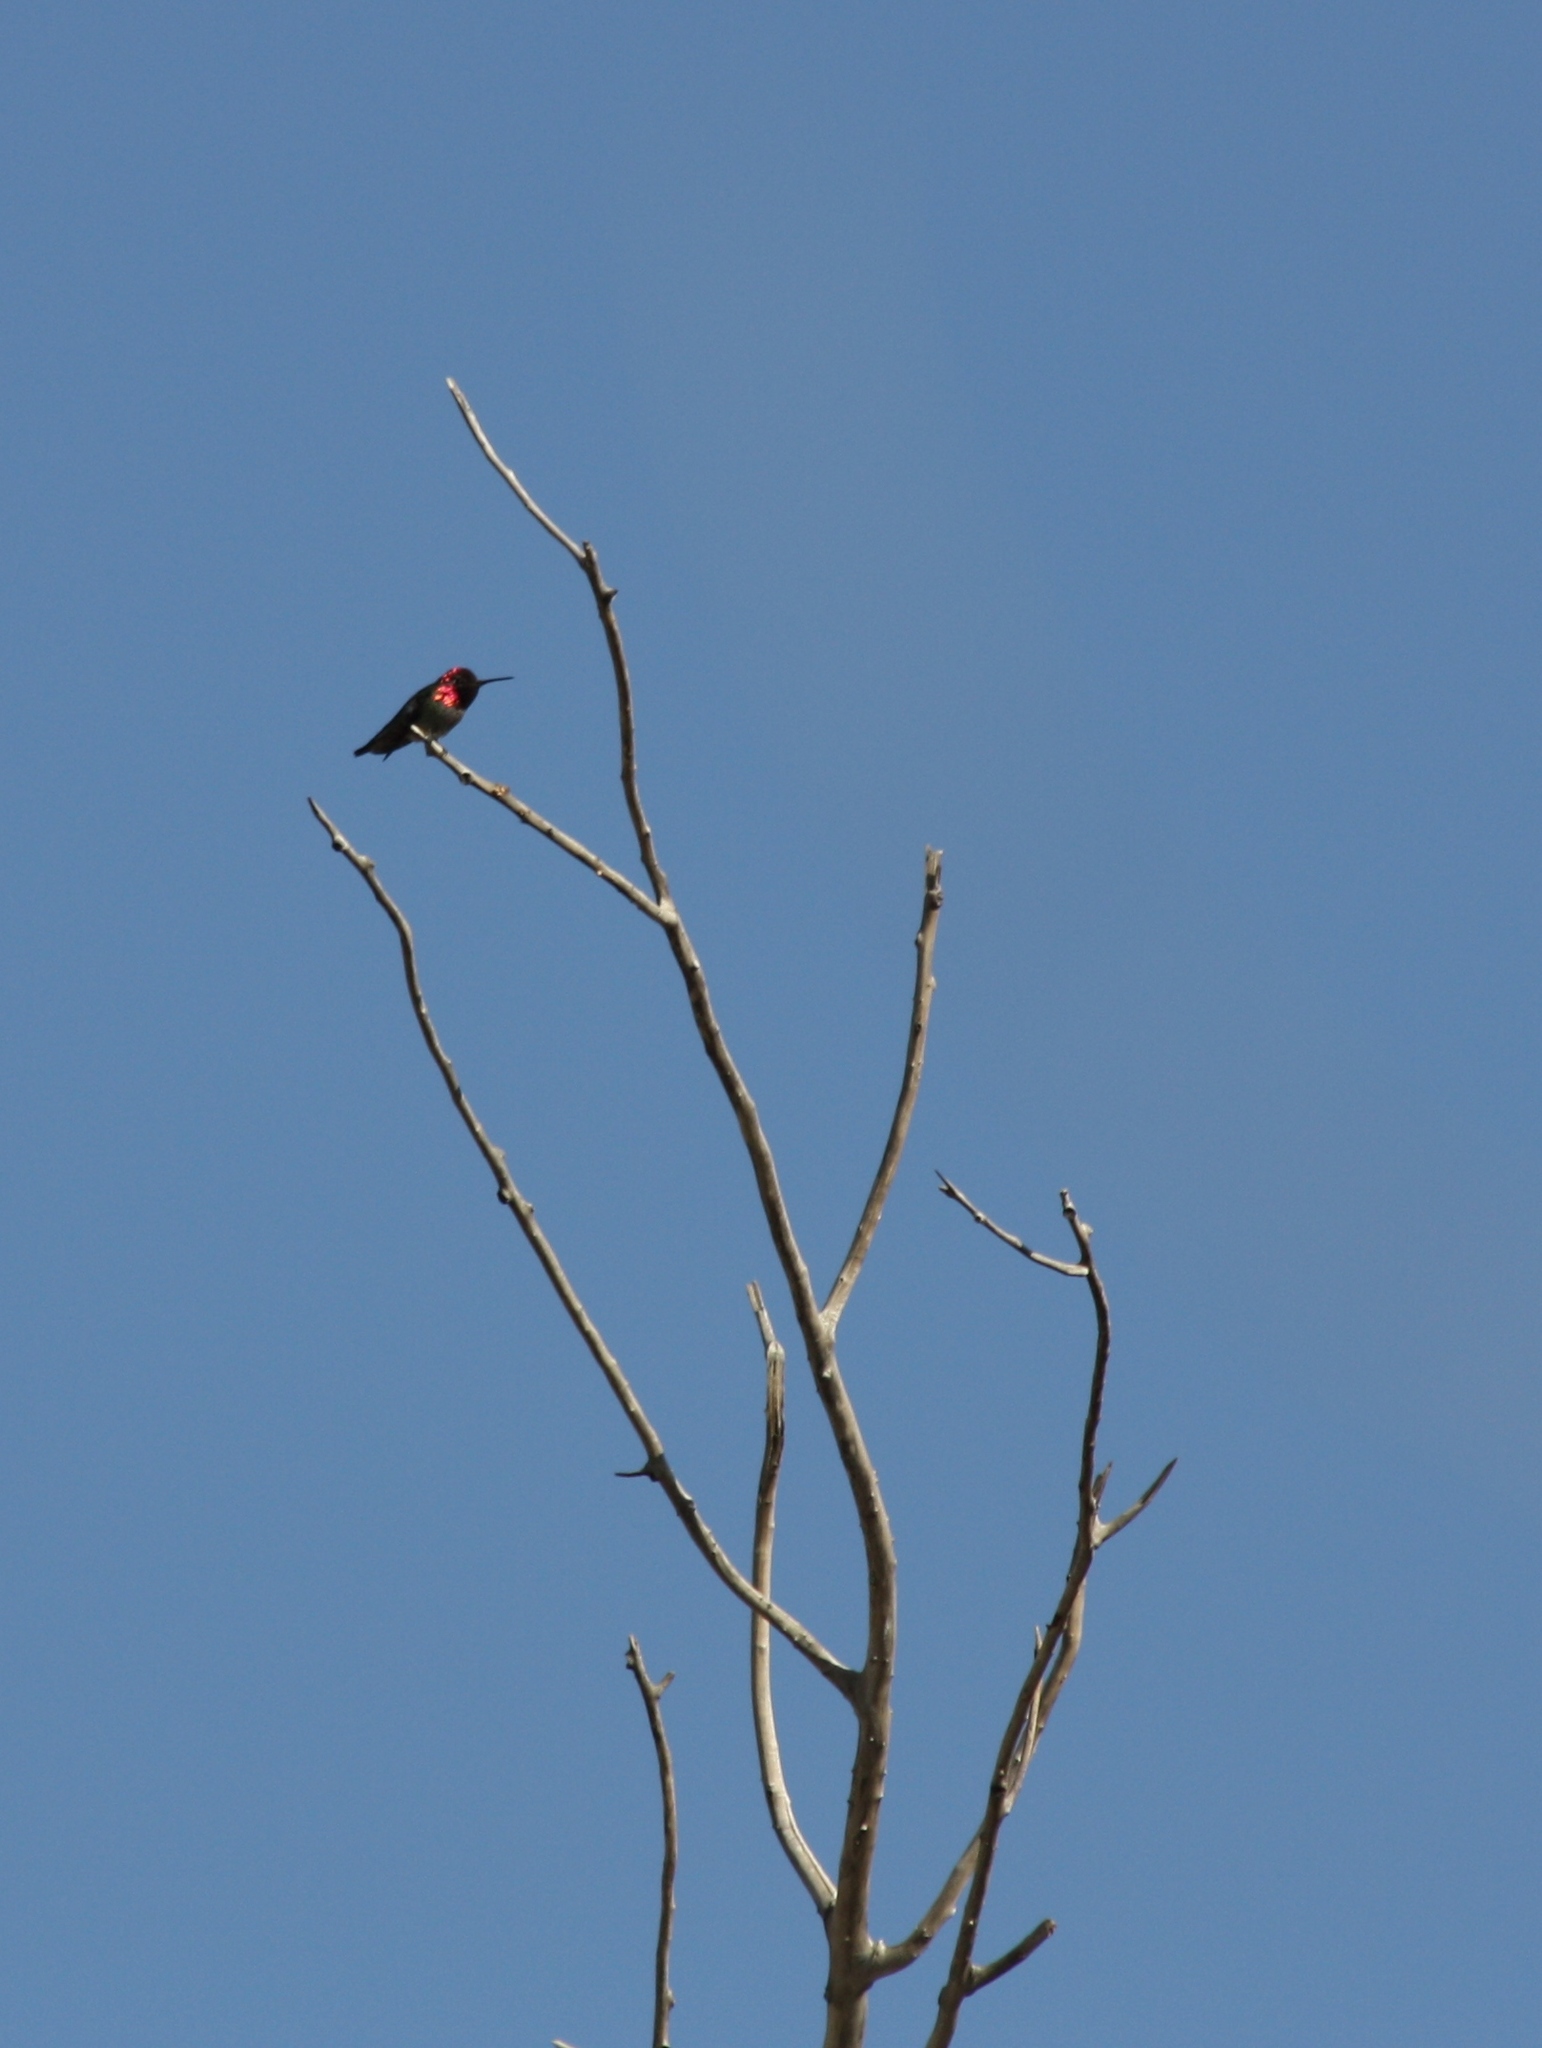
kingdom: Animalia
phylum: Chordata
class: Aves
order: Apodiformes
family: Trochilidae
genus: Calypte
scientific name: Calypte anna
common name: Anna's hummingbird
